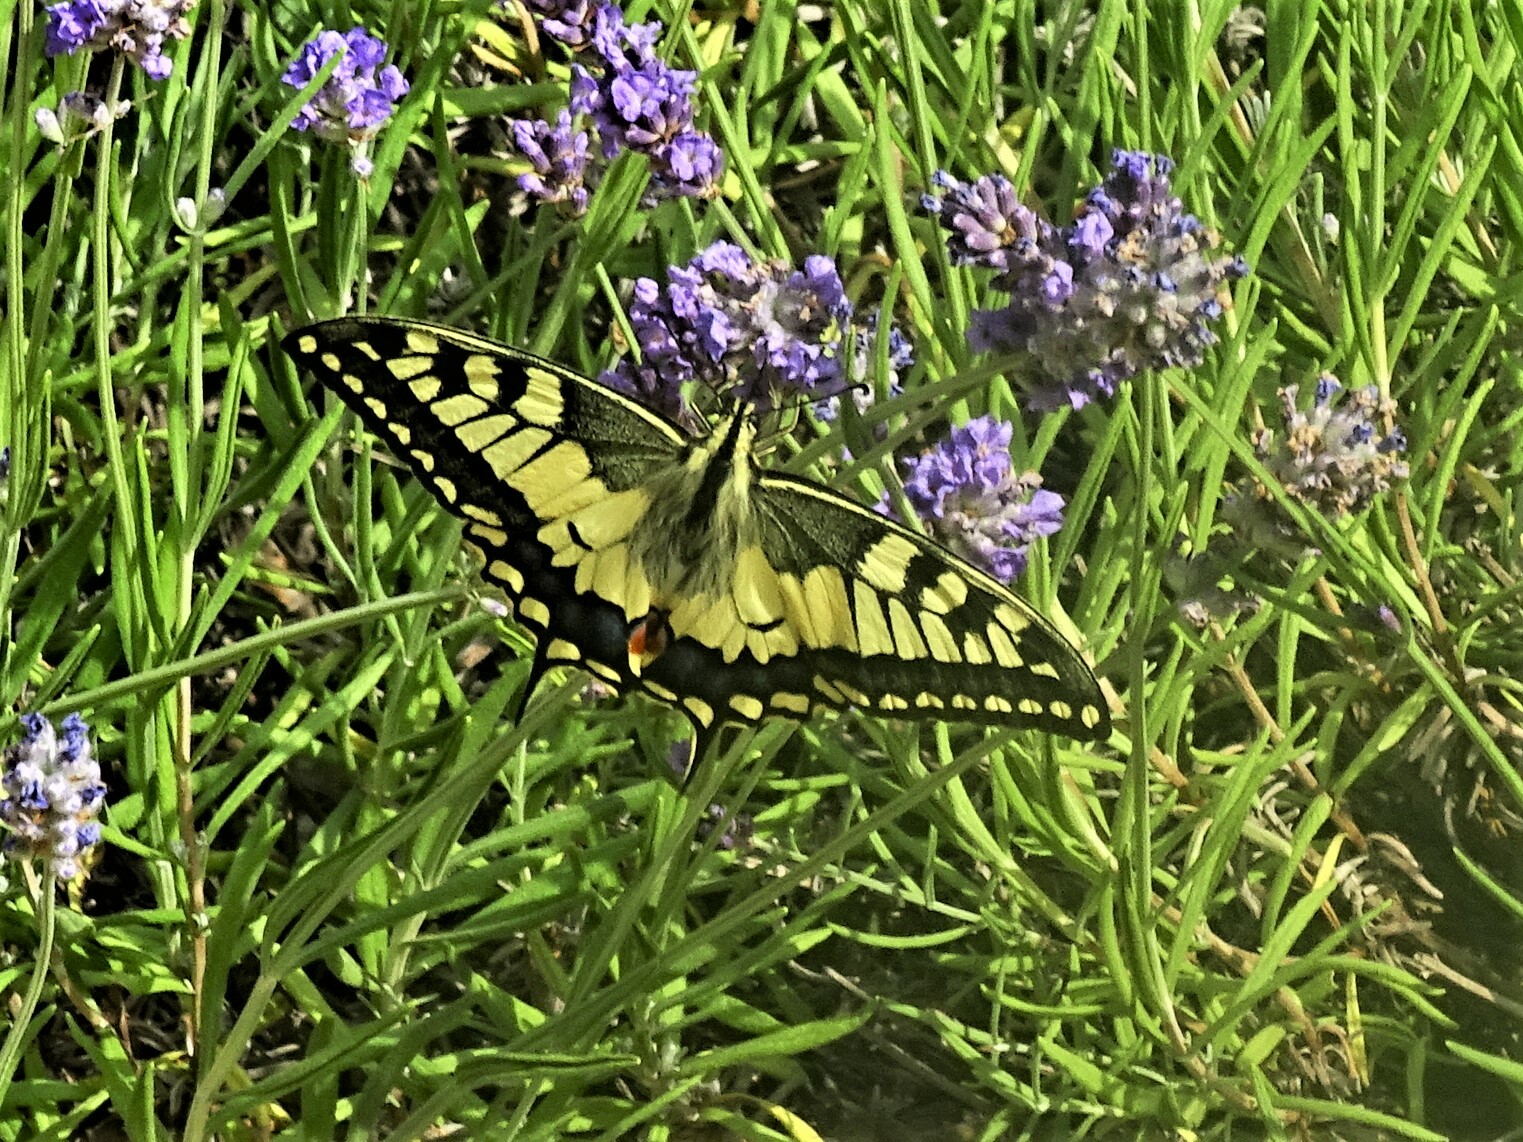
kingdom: Animalia
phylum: Arthropoda
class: Insecta
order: Lepidoptera
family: Papilionidae
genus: Papilio
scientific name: Papilio machaon
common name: Swallowtail
